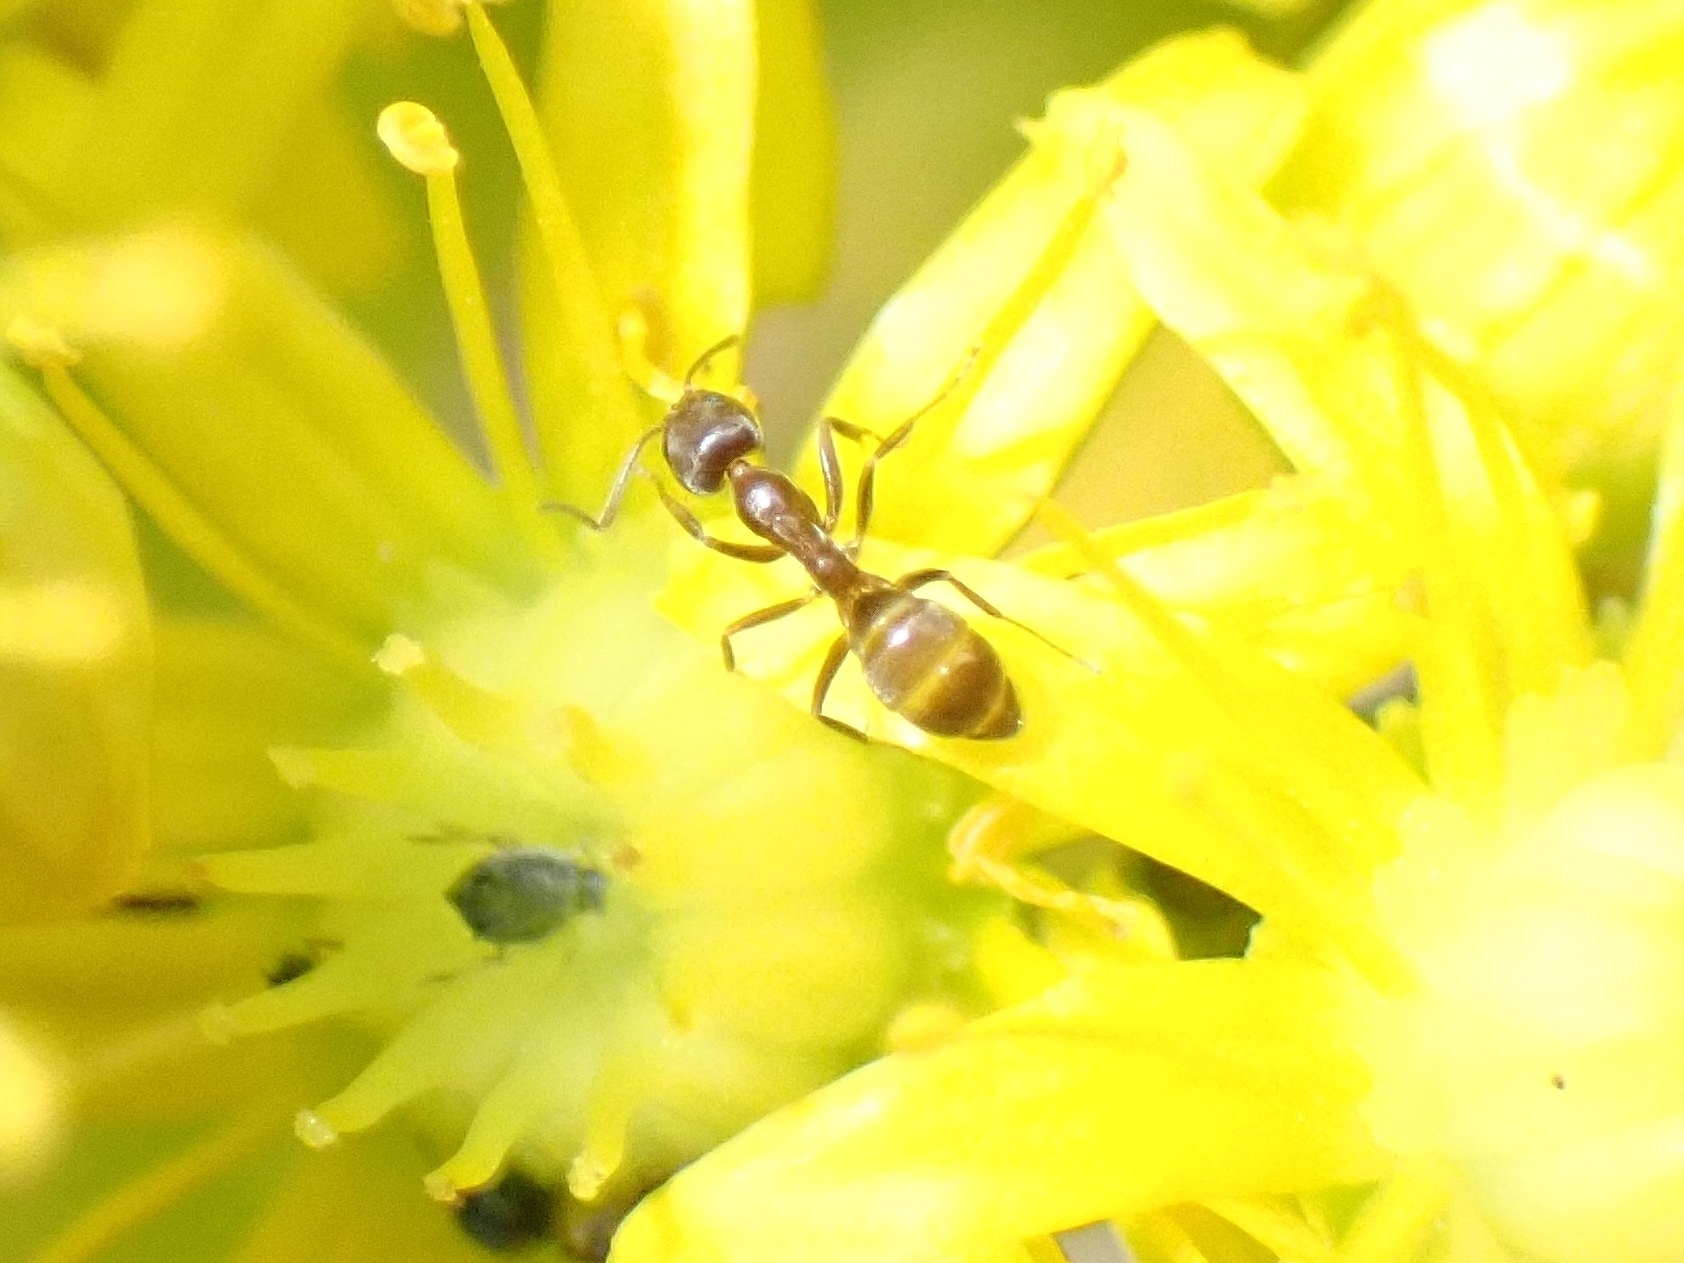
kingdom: Animalia
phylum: Arthropoda
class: Insecta
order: Hymenoptera
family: Formicidae
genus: Linepithema
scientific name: Linepithema humile
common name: Argentine ant
